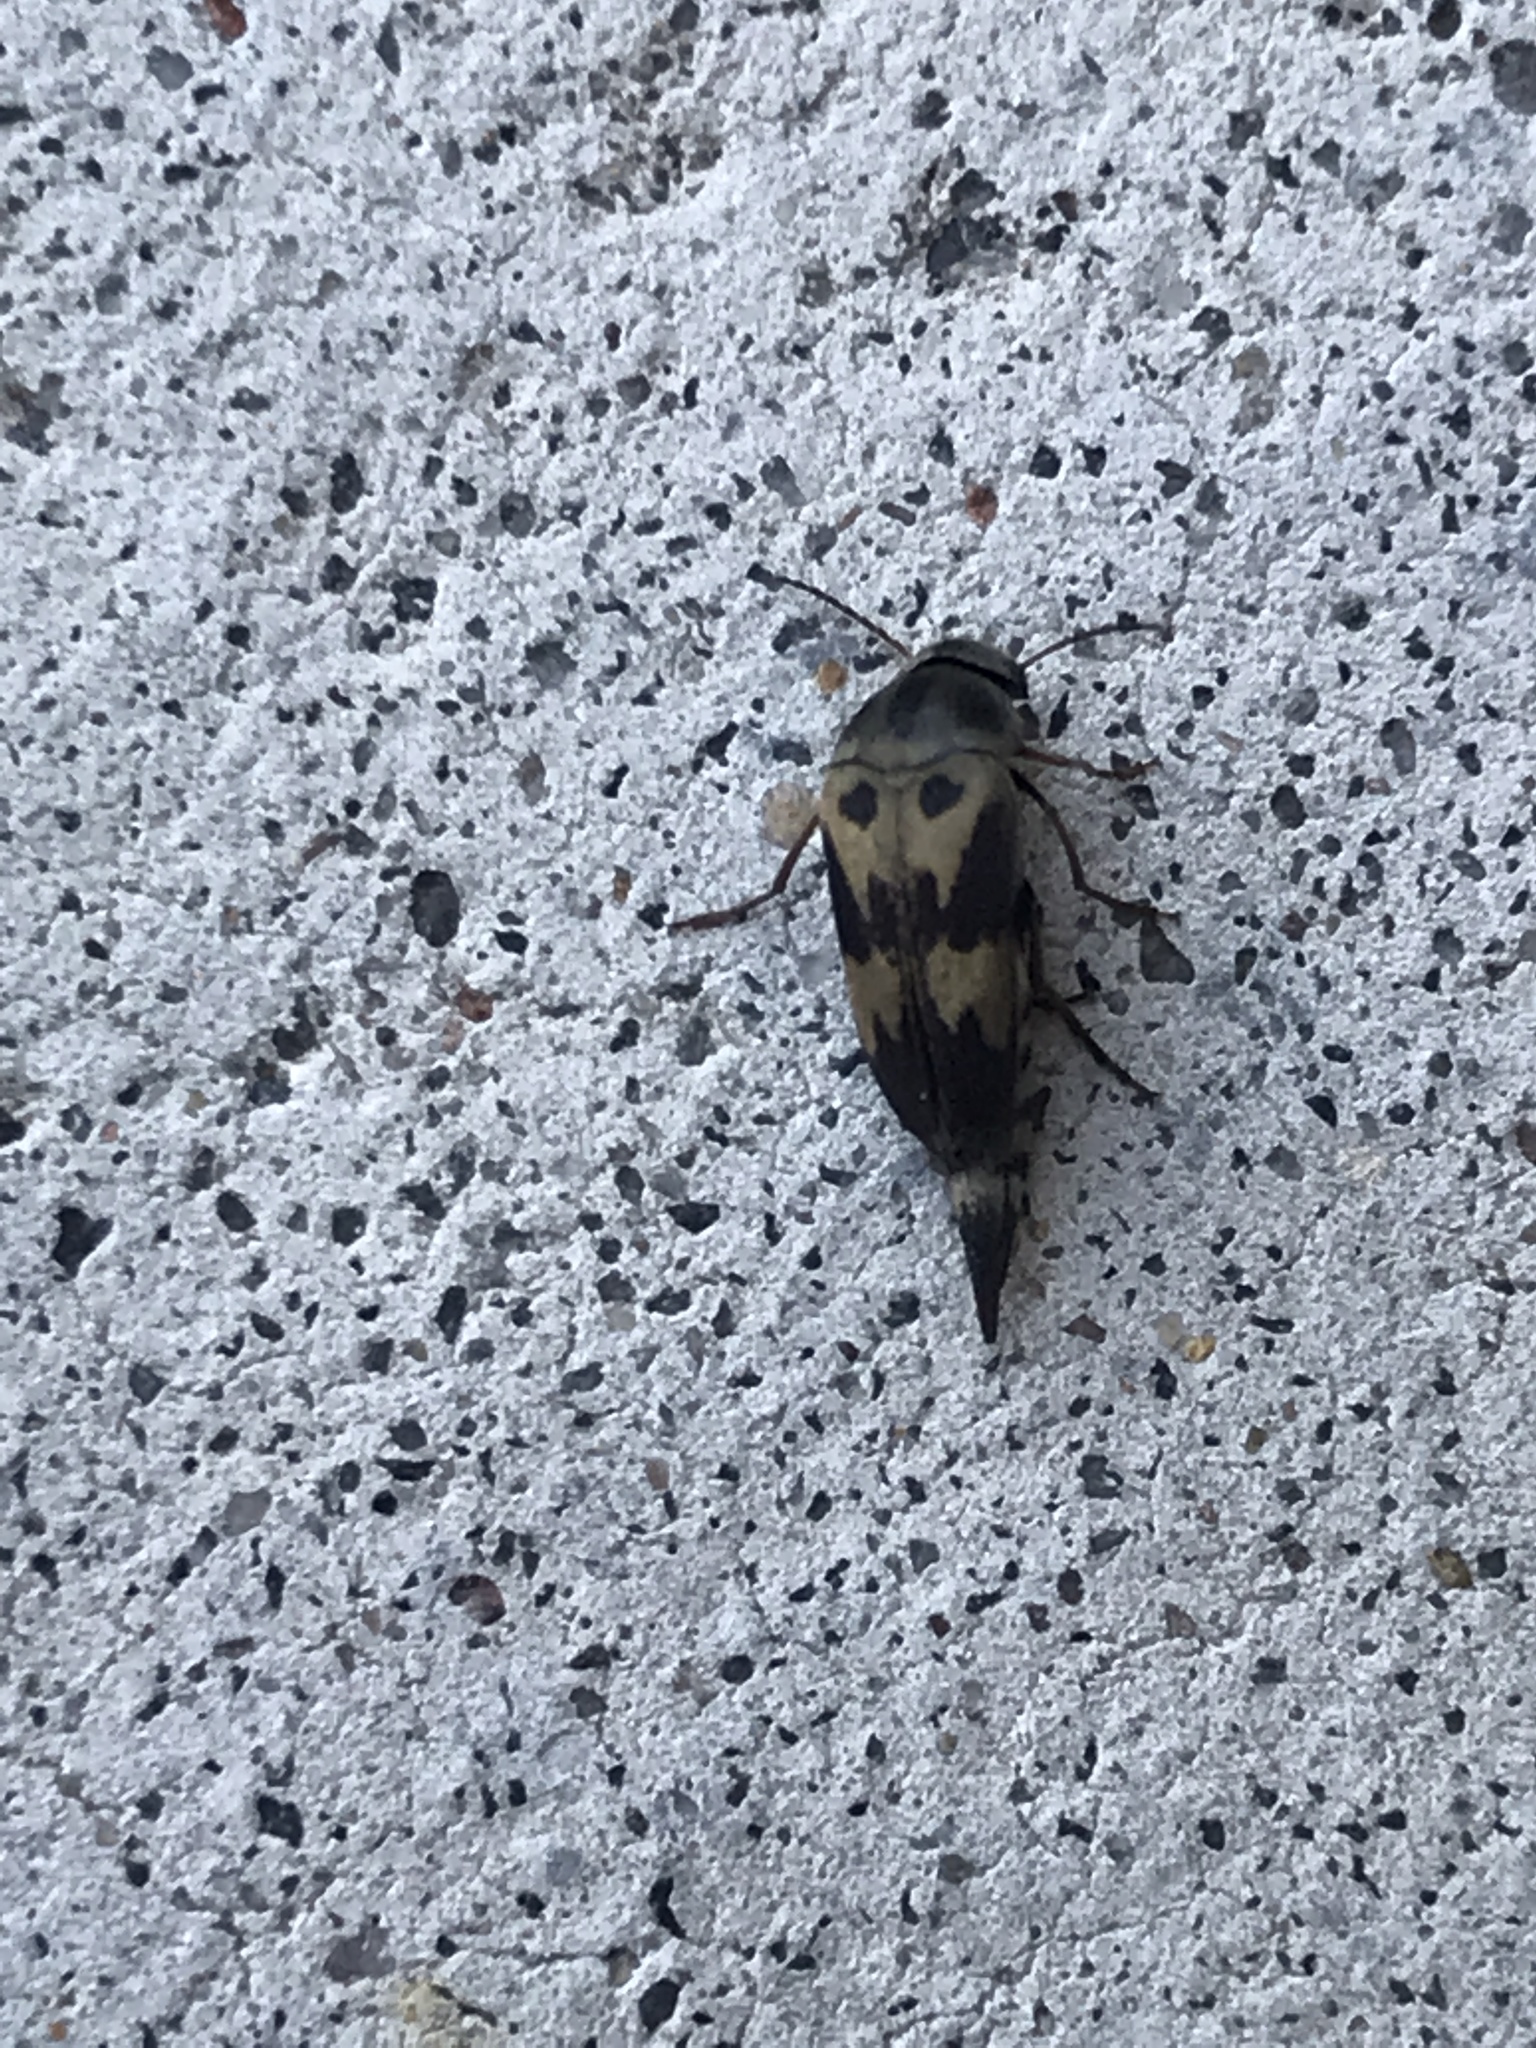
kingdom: Animalia
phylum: Arthropoda
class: Insecta
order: Coleoptera
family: Mordellidae
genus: Glipa
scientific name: Glipa oculata
